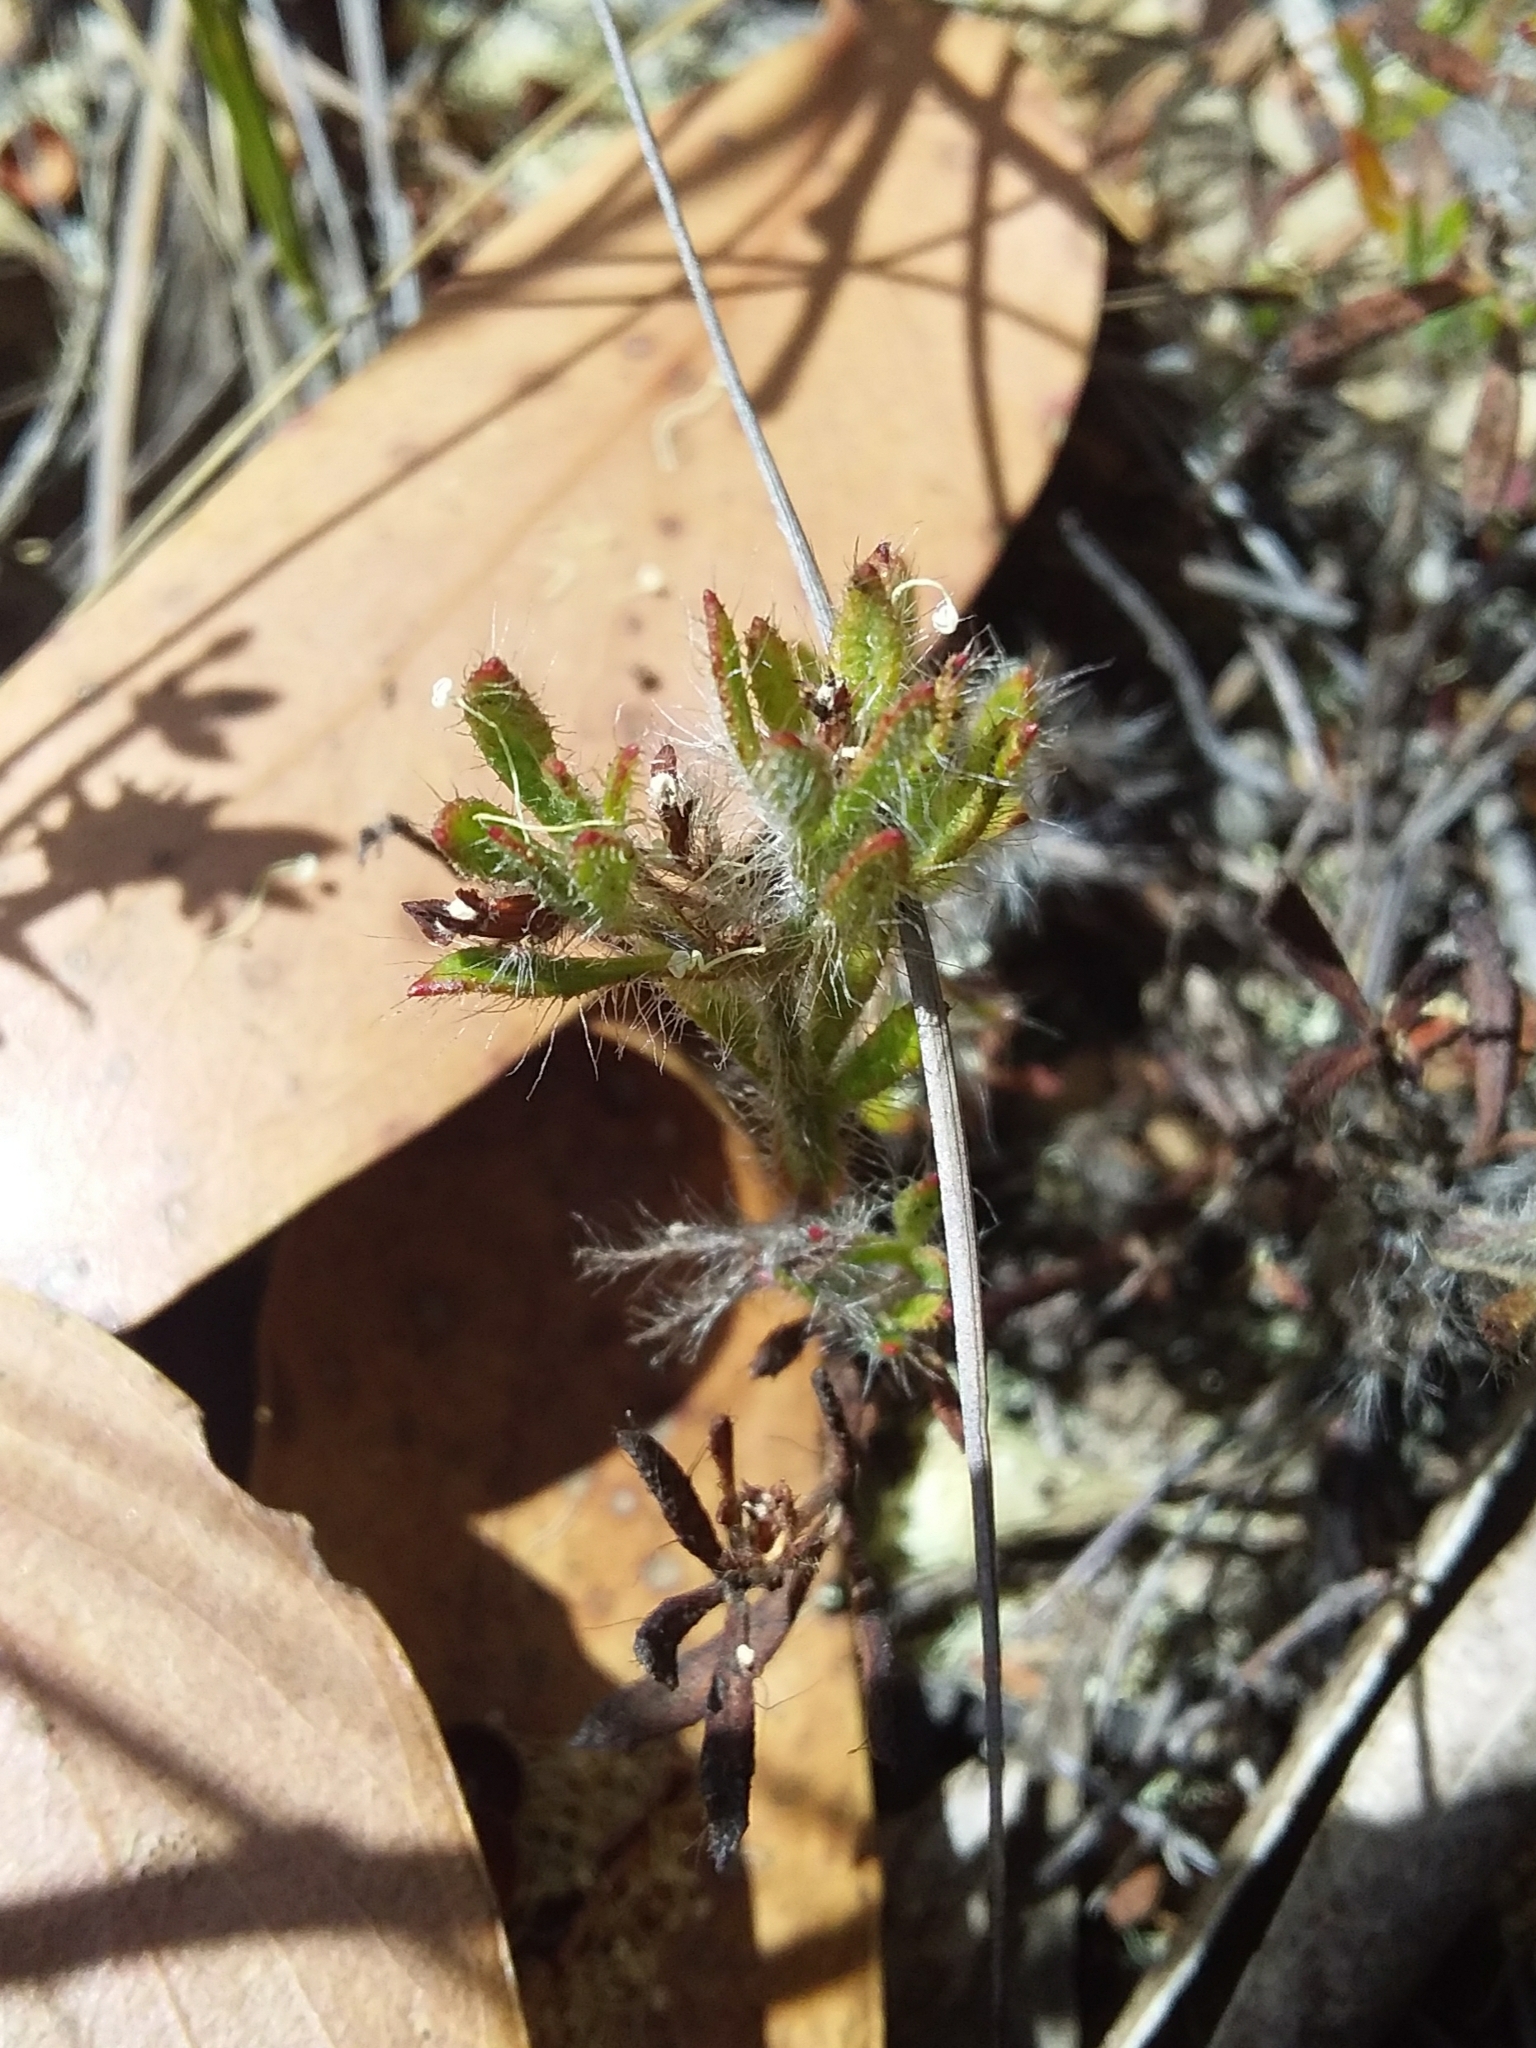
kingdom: Plantae
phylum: Tracheophyta
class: Magnoliopsida
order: Apiales
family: Apiaceae
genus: Xanthosia
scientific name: Xanthosia huegelii
